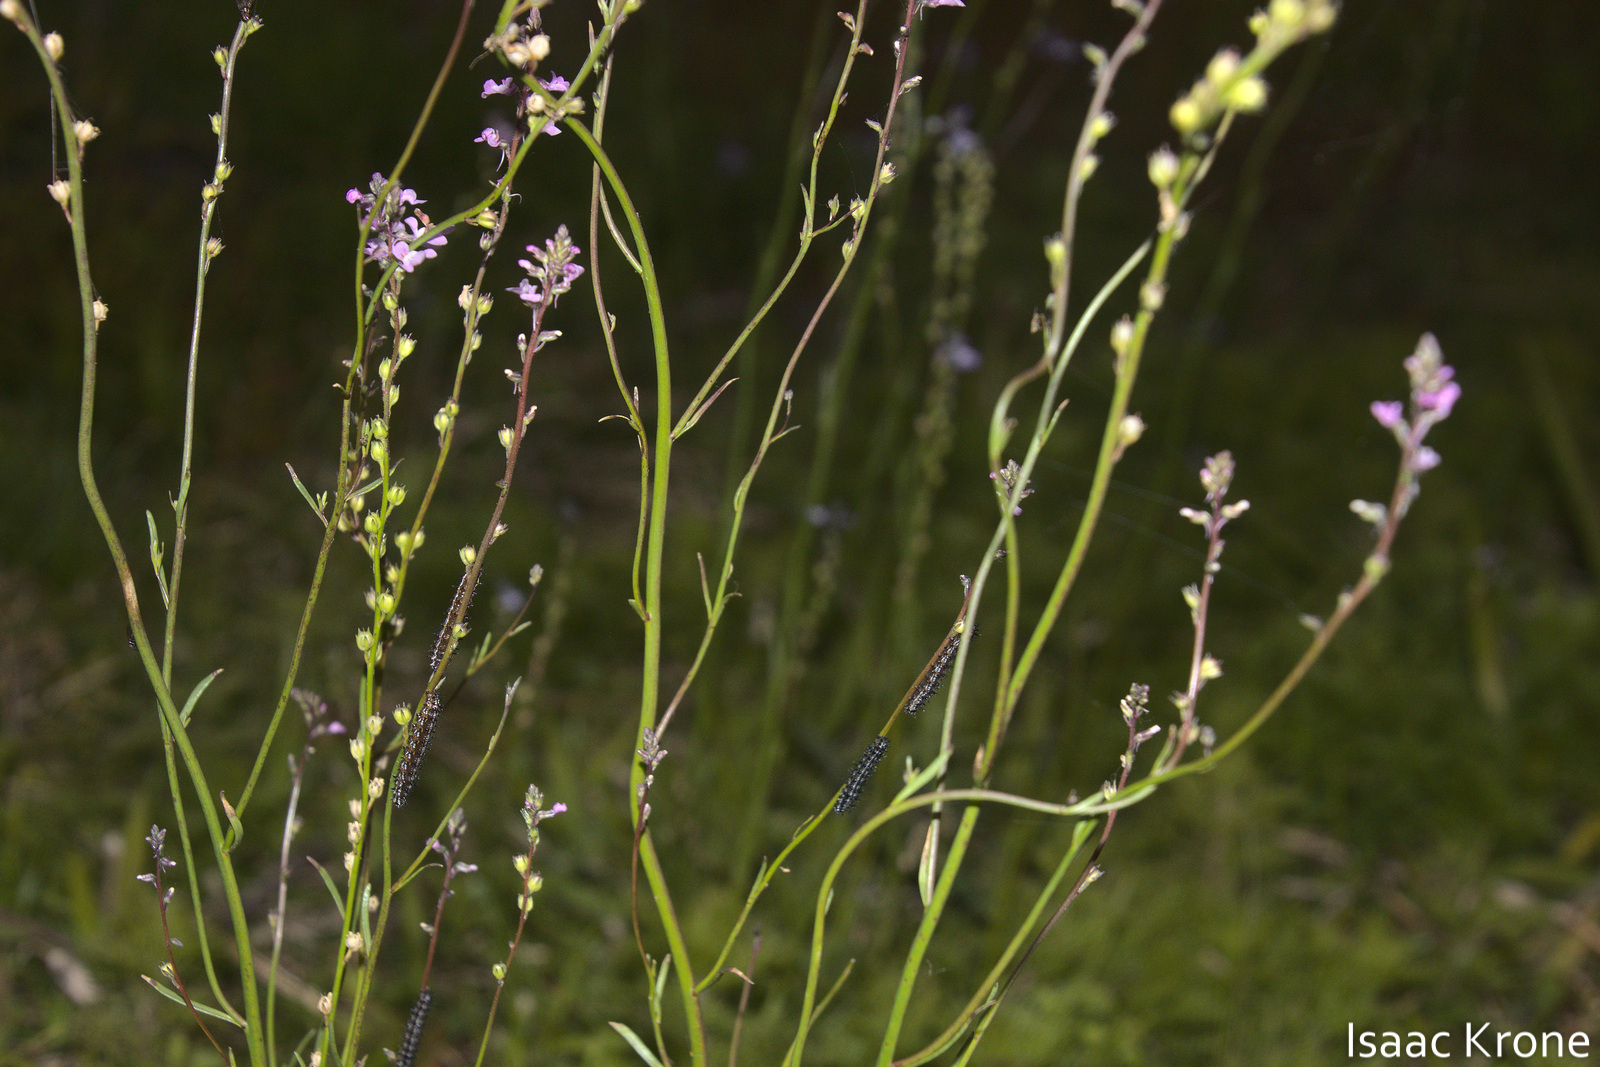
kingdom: Animalia
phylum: Arthropoda
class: Insecta
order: Lepidoptera
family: Nymphalidae
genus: Junonia
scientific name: Junonia coenia
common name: Common buckeye
